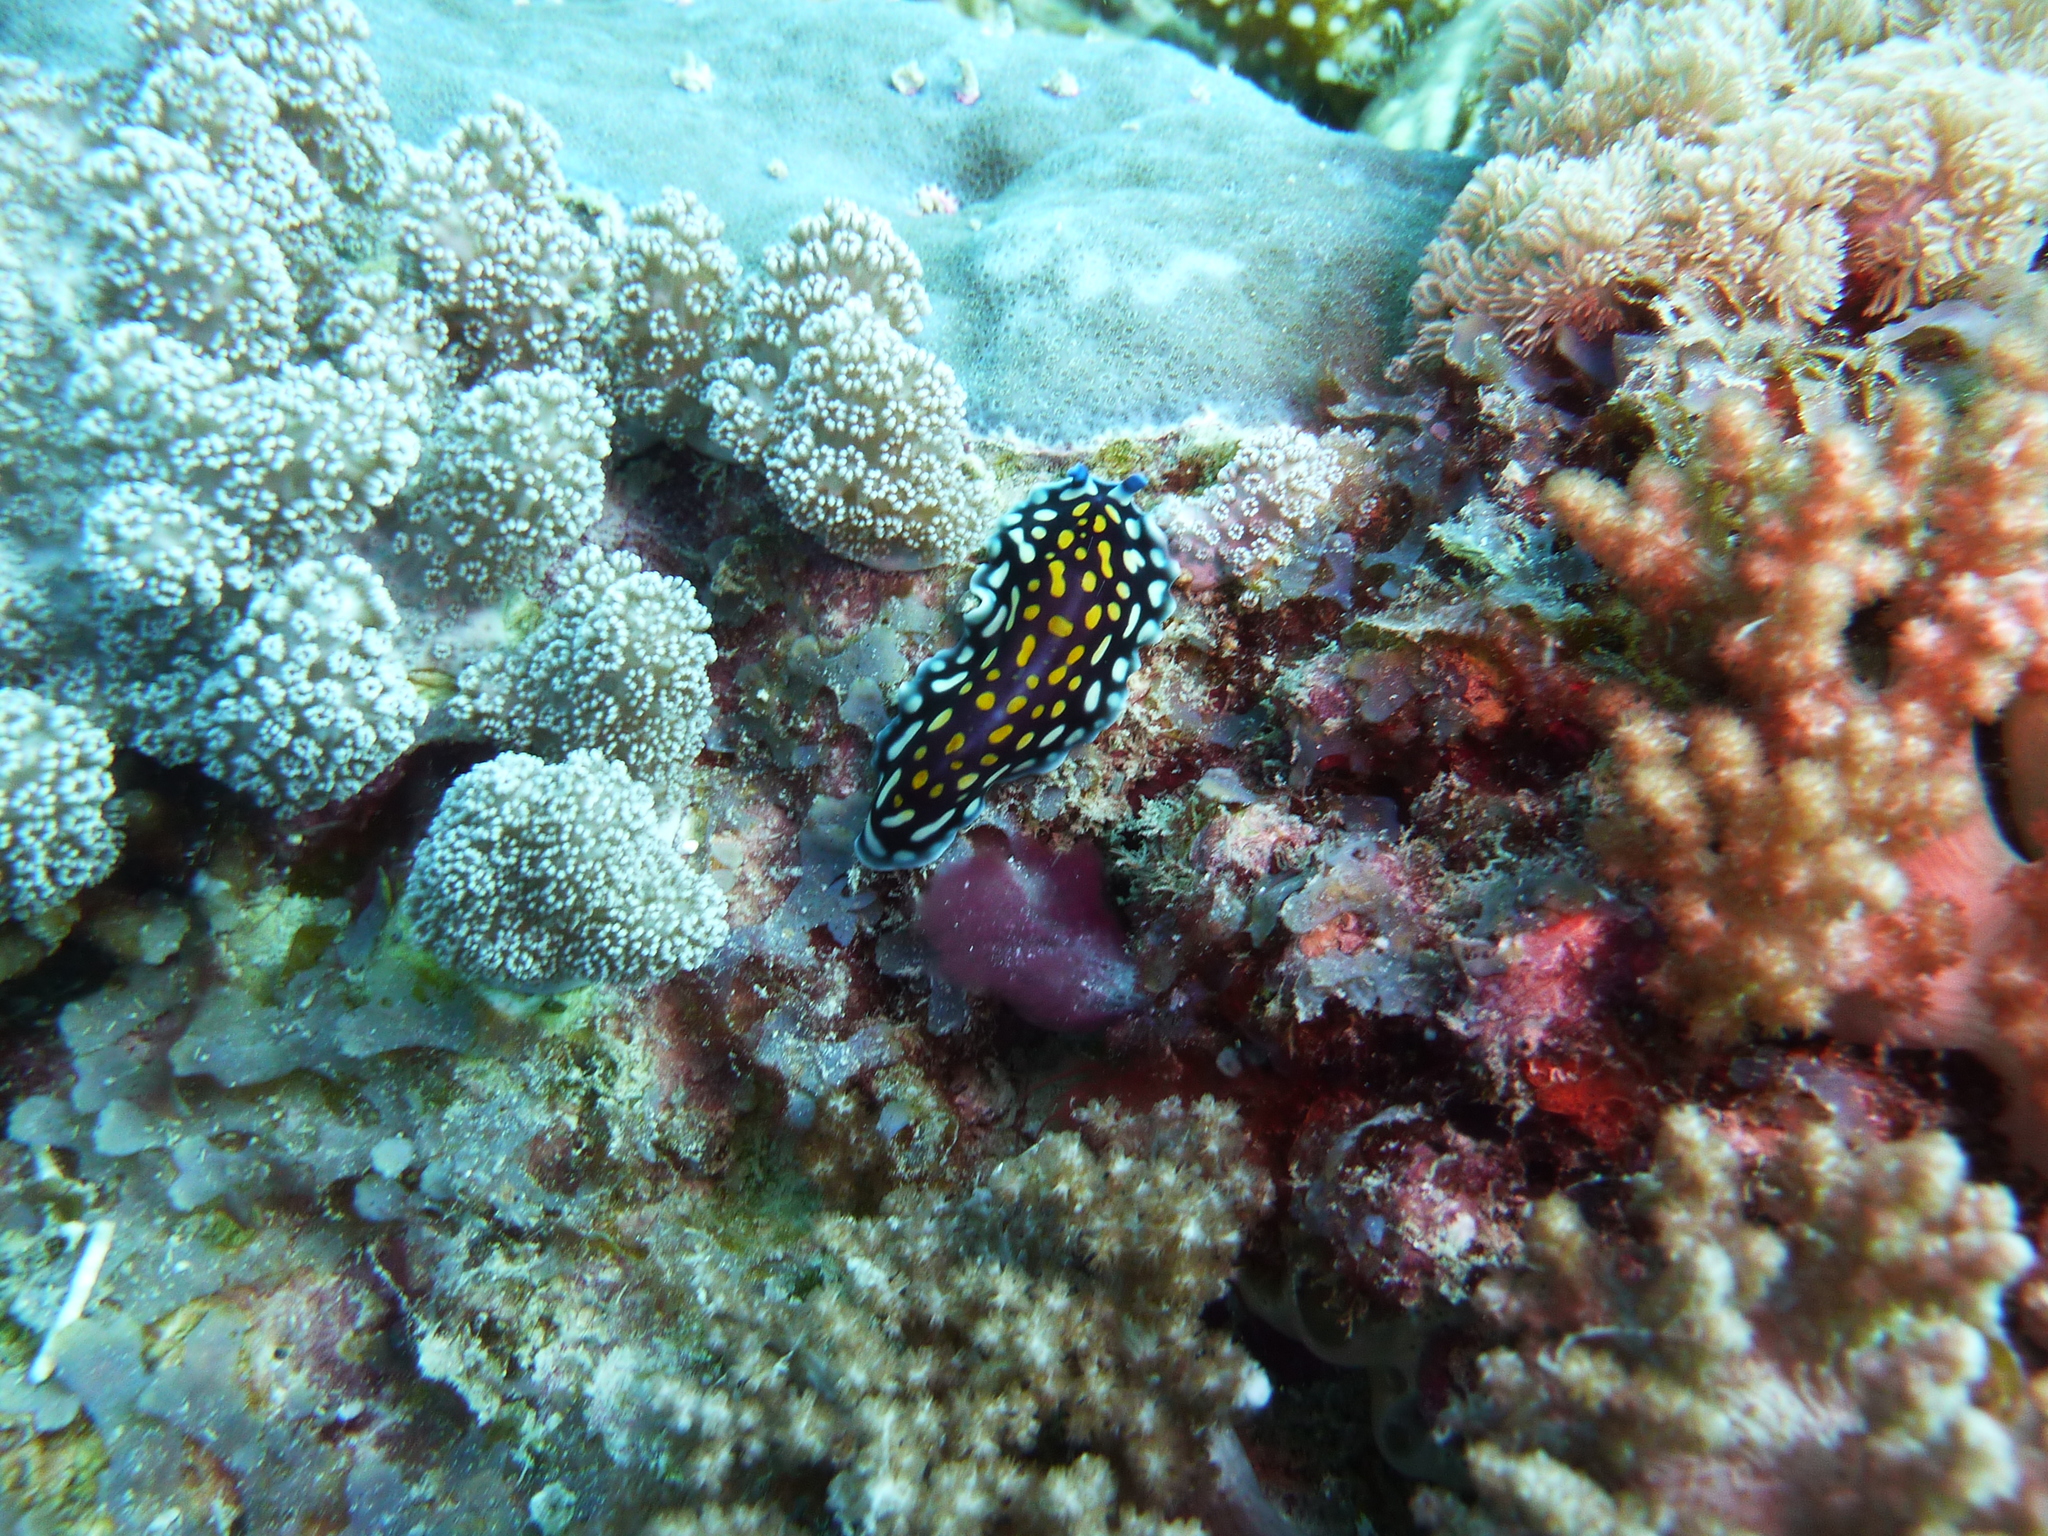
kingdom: Animalia
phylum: Platyhelminthes
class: Turbellaria
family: Pseudocerotidae
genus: Pseudoceros
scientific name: Pseudoceros lindae
